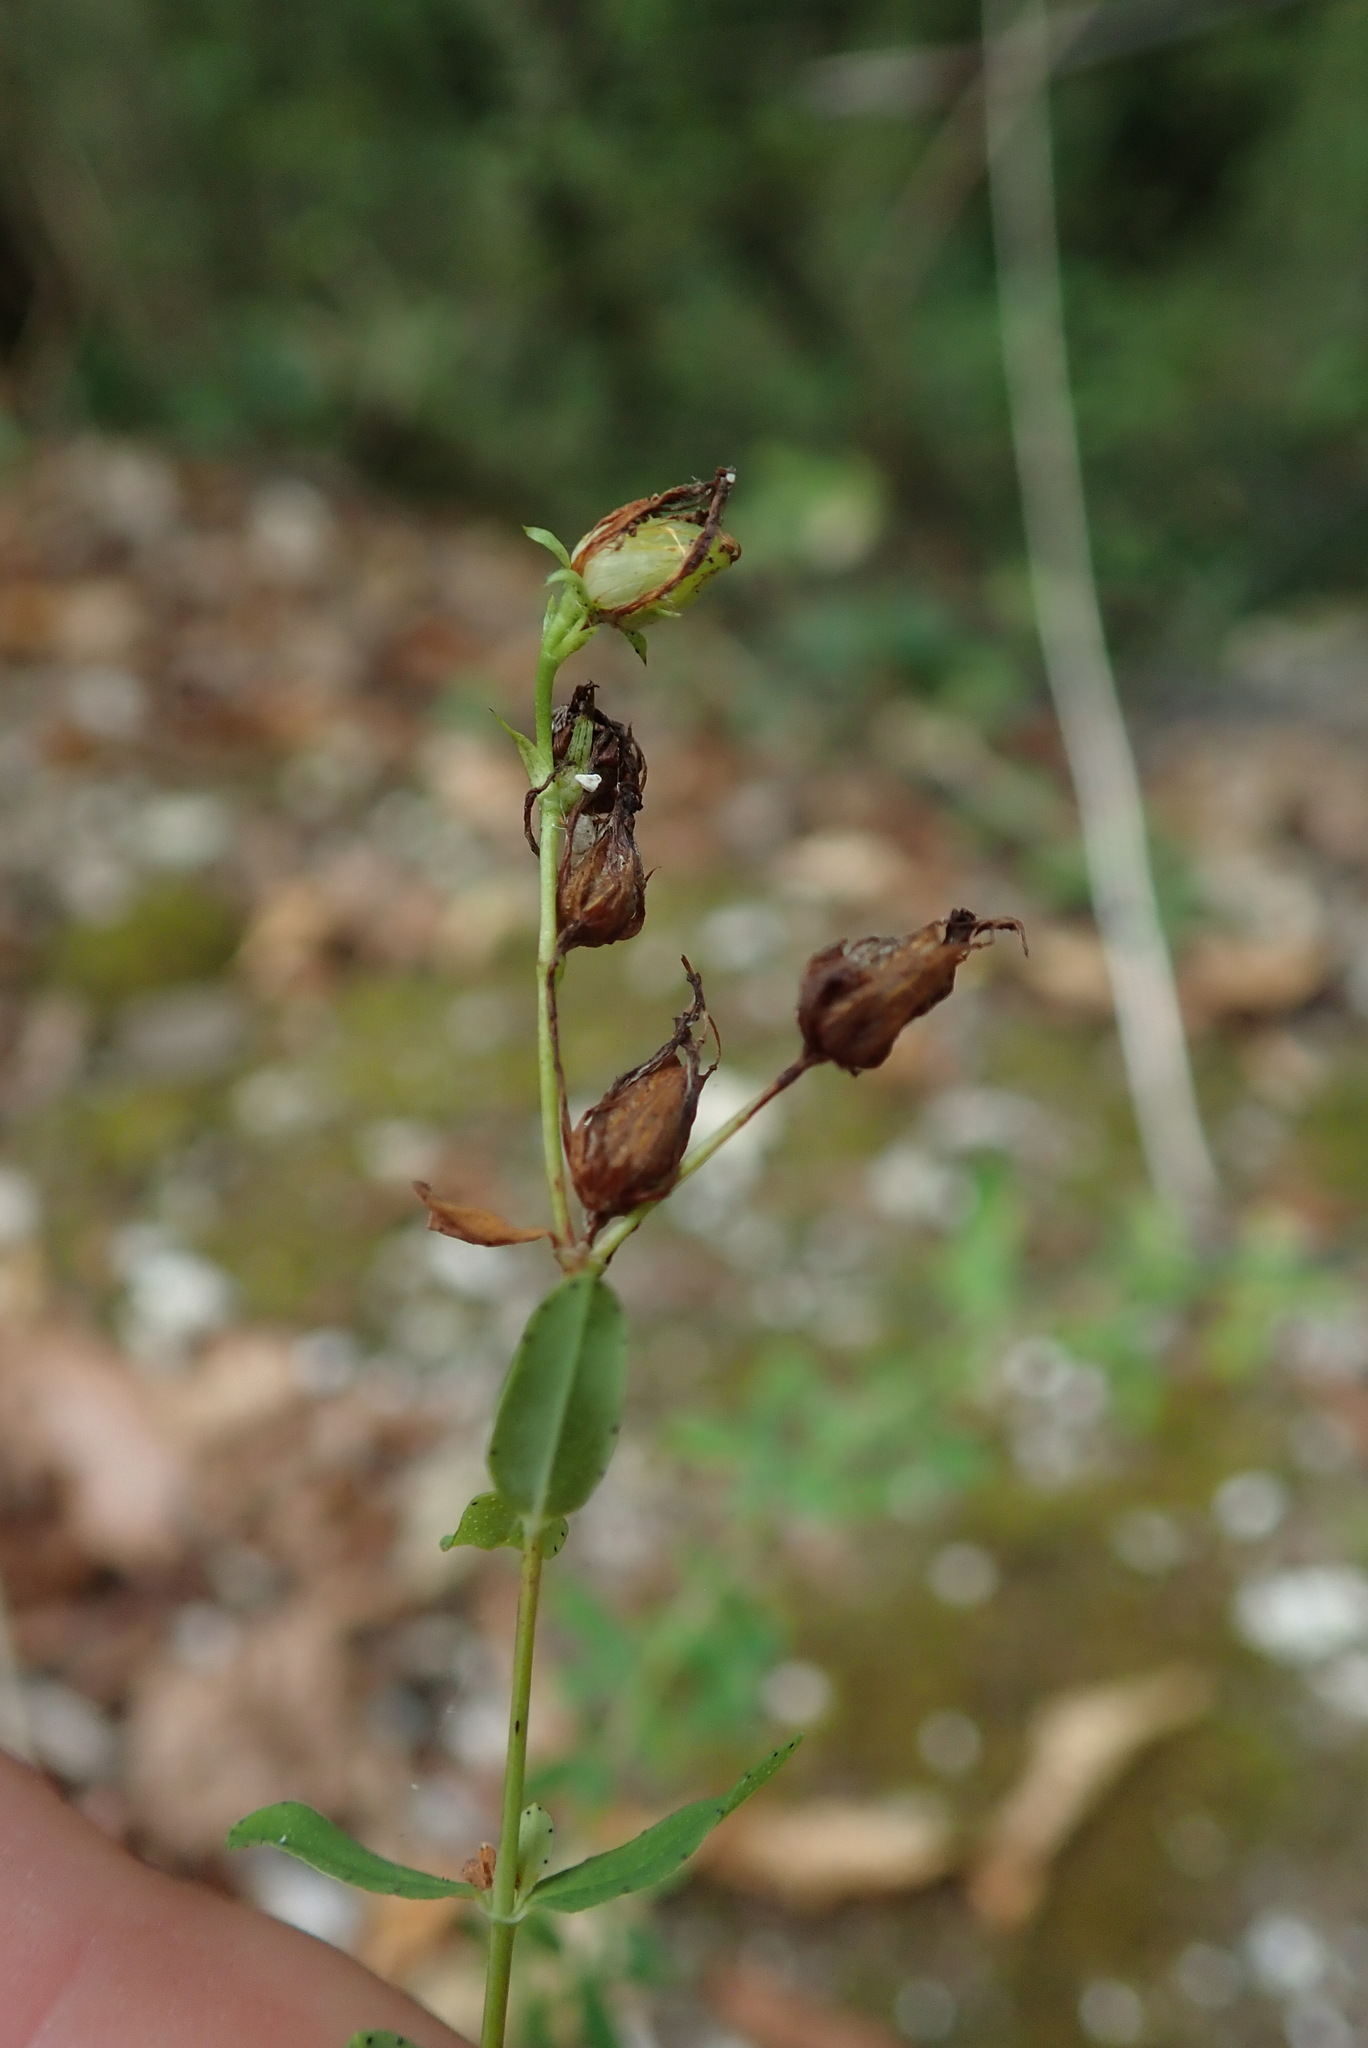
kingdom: Plantae
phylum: Tracheophyta
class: Magnoliopsida
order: Malpighiales
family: Hypericaceae
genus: Hypericum
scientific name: Hypericum perforatum
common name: Common st. johnswort
